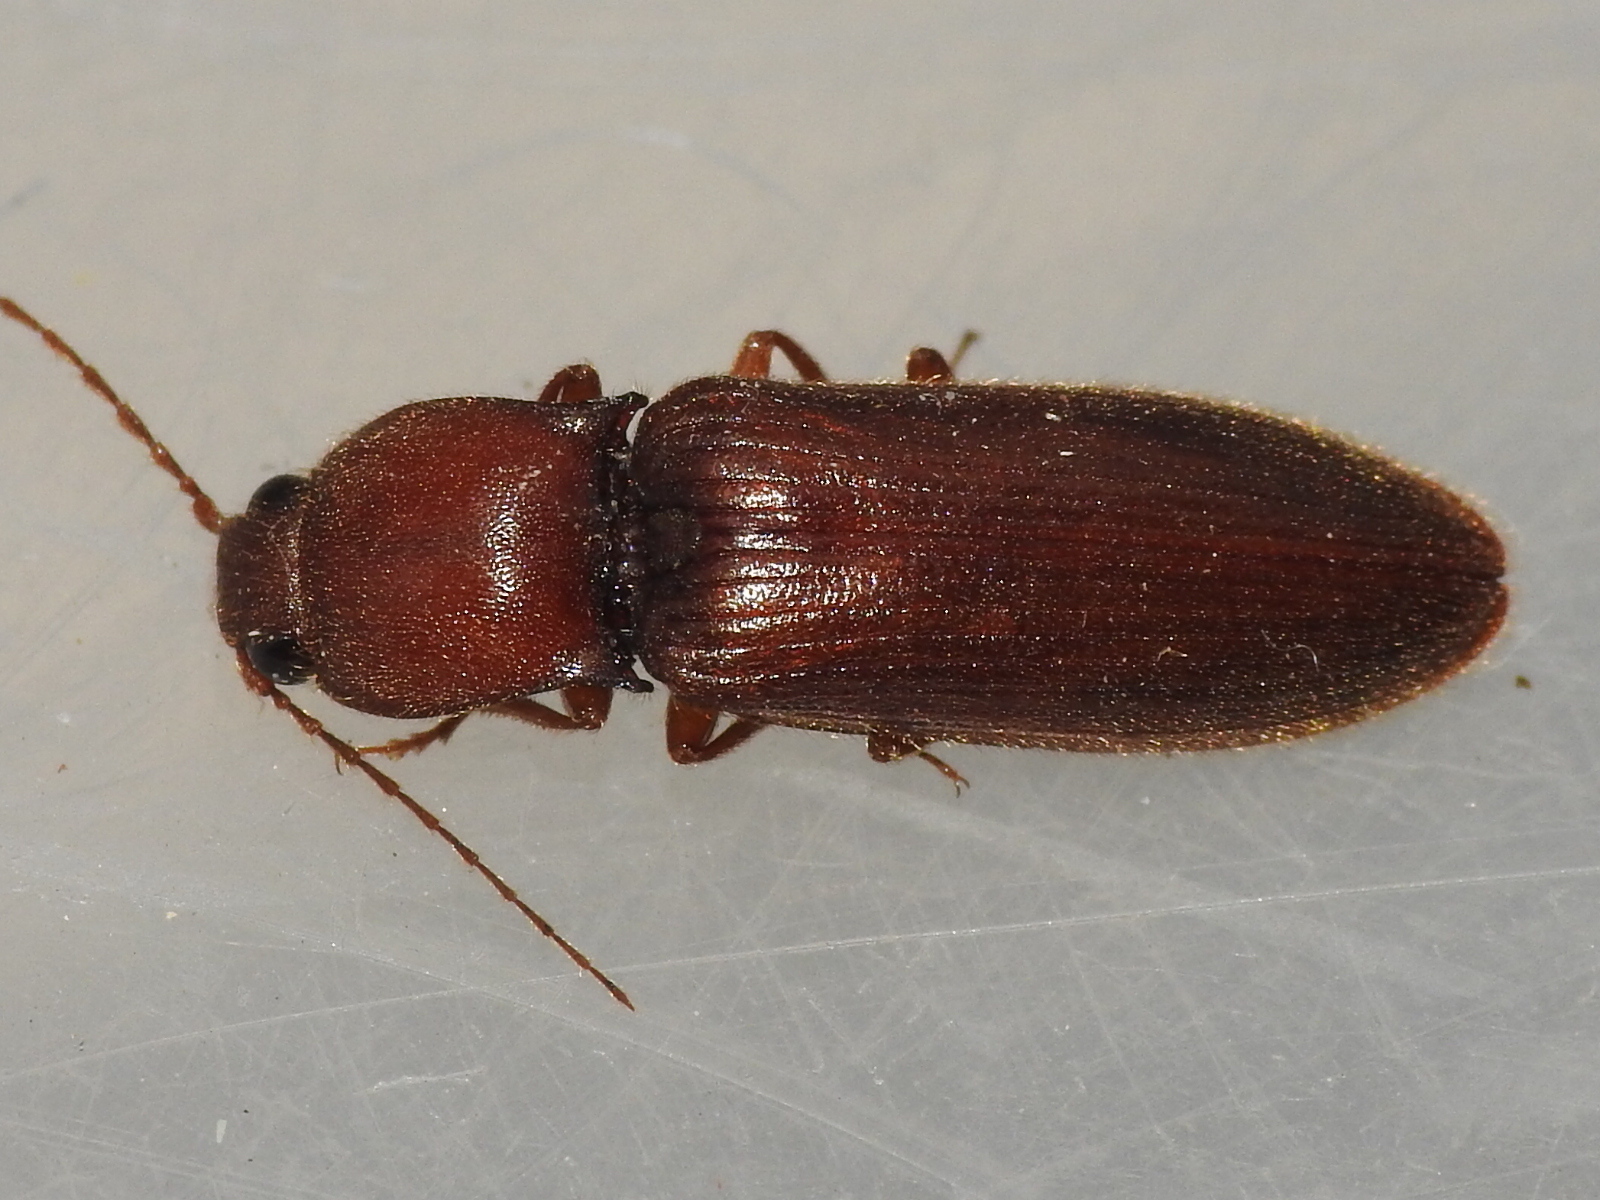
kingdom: Animalia
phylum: Arthropoda
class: Insecta
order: Coleoptera
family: Elateridae
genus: Hemicrepidius
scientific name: Hemicrepidius
